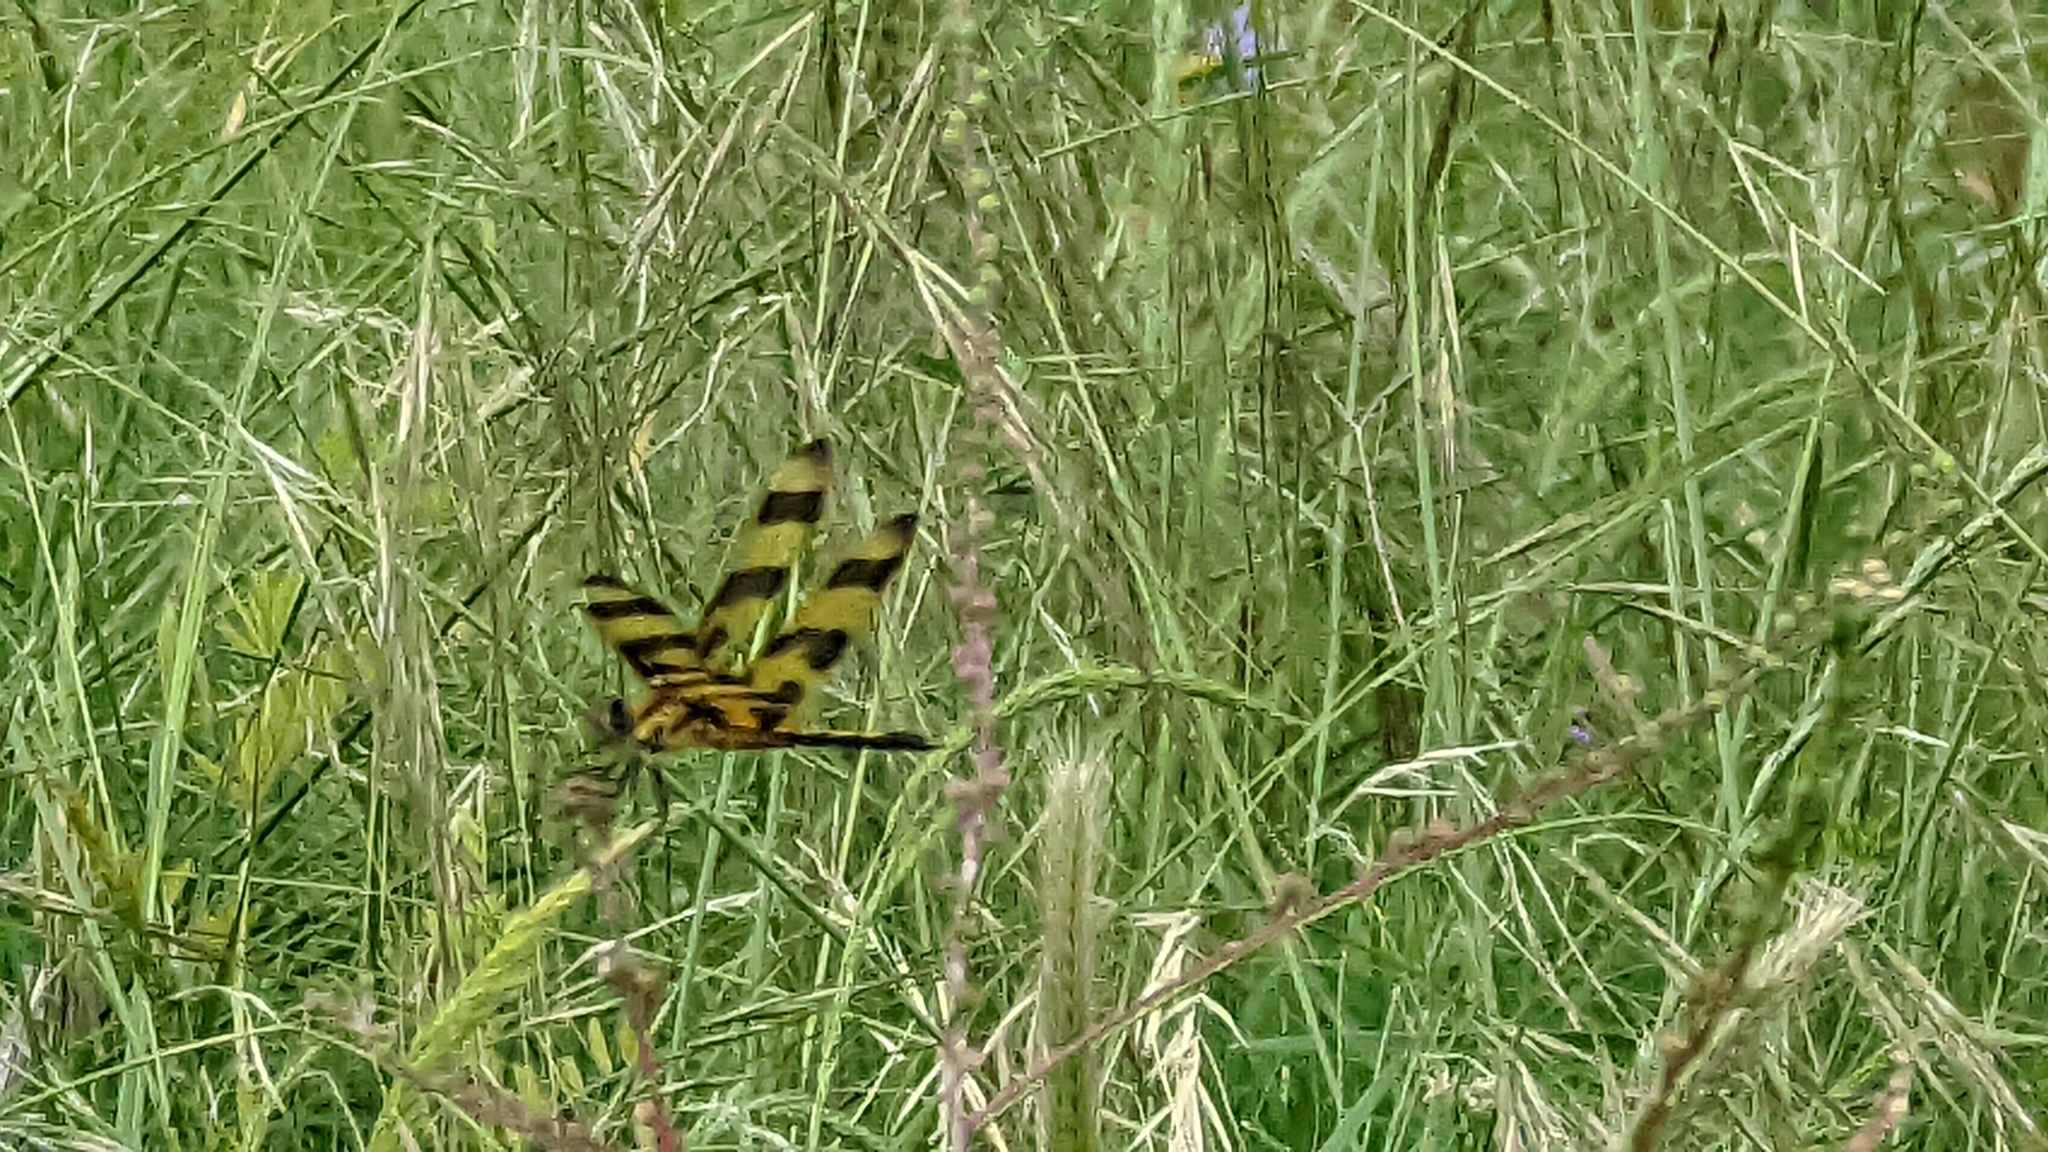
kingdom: Animalia
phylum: Arthropoda
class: Insecta
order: Odonata
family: Libellulidae
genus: Celithemis
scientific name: Celithemis eponina
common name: Halloween pennant
